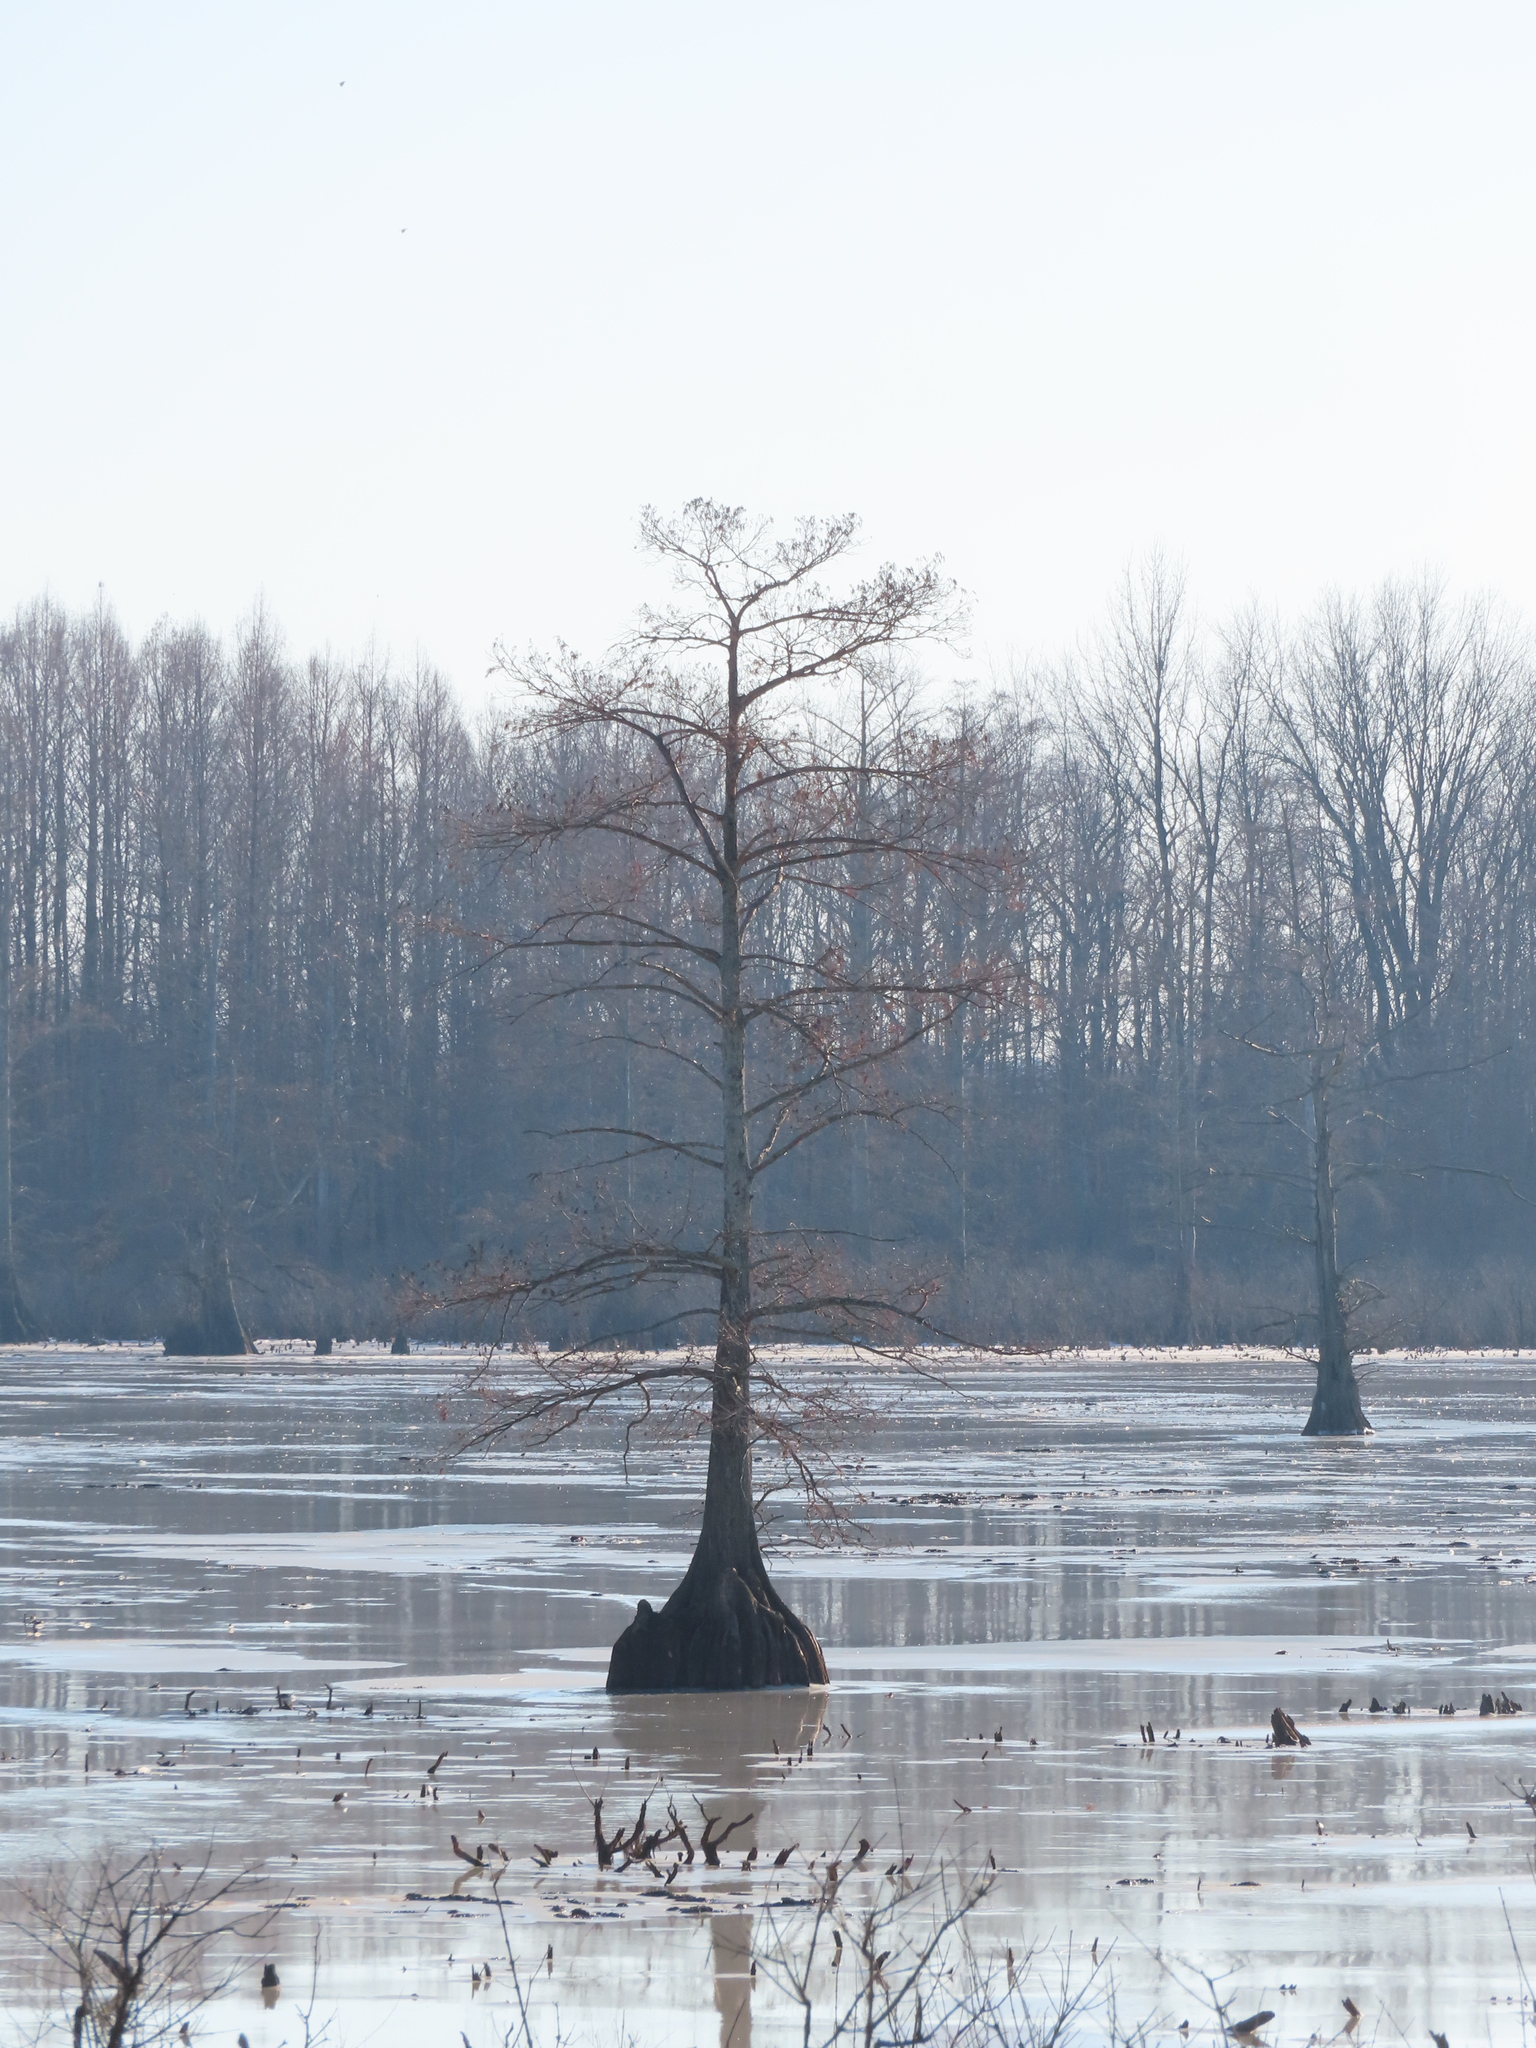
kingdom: Plantae
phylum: Tracheophyta
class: Pinopsida
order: Pinales
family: Cupressaceae
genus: Taxodium
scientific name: Taxodium distichum
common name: Bald cypress
